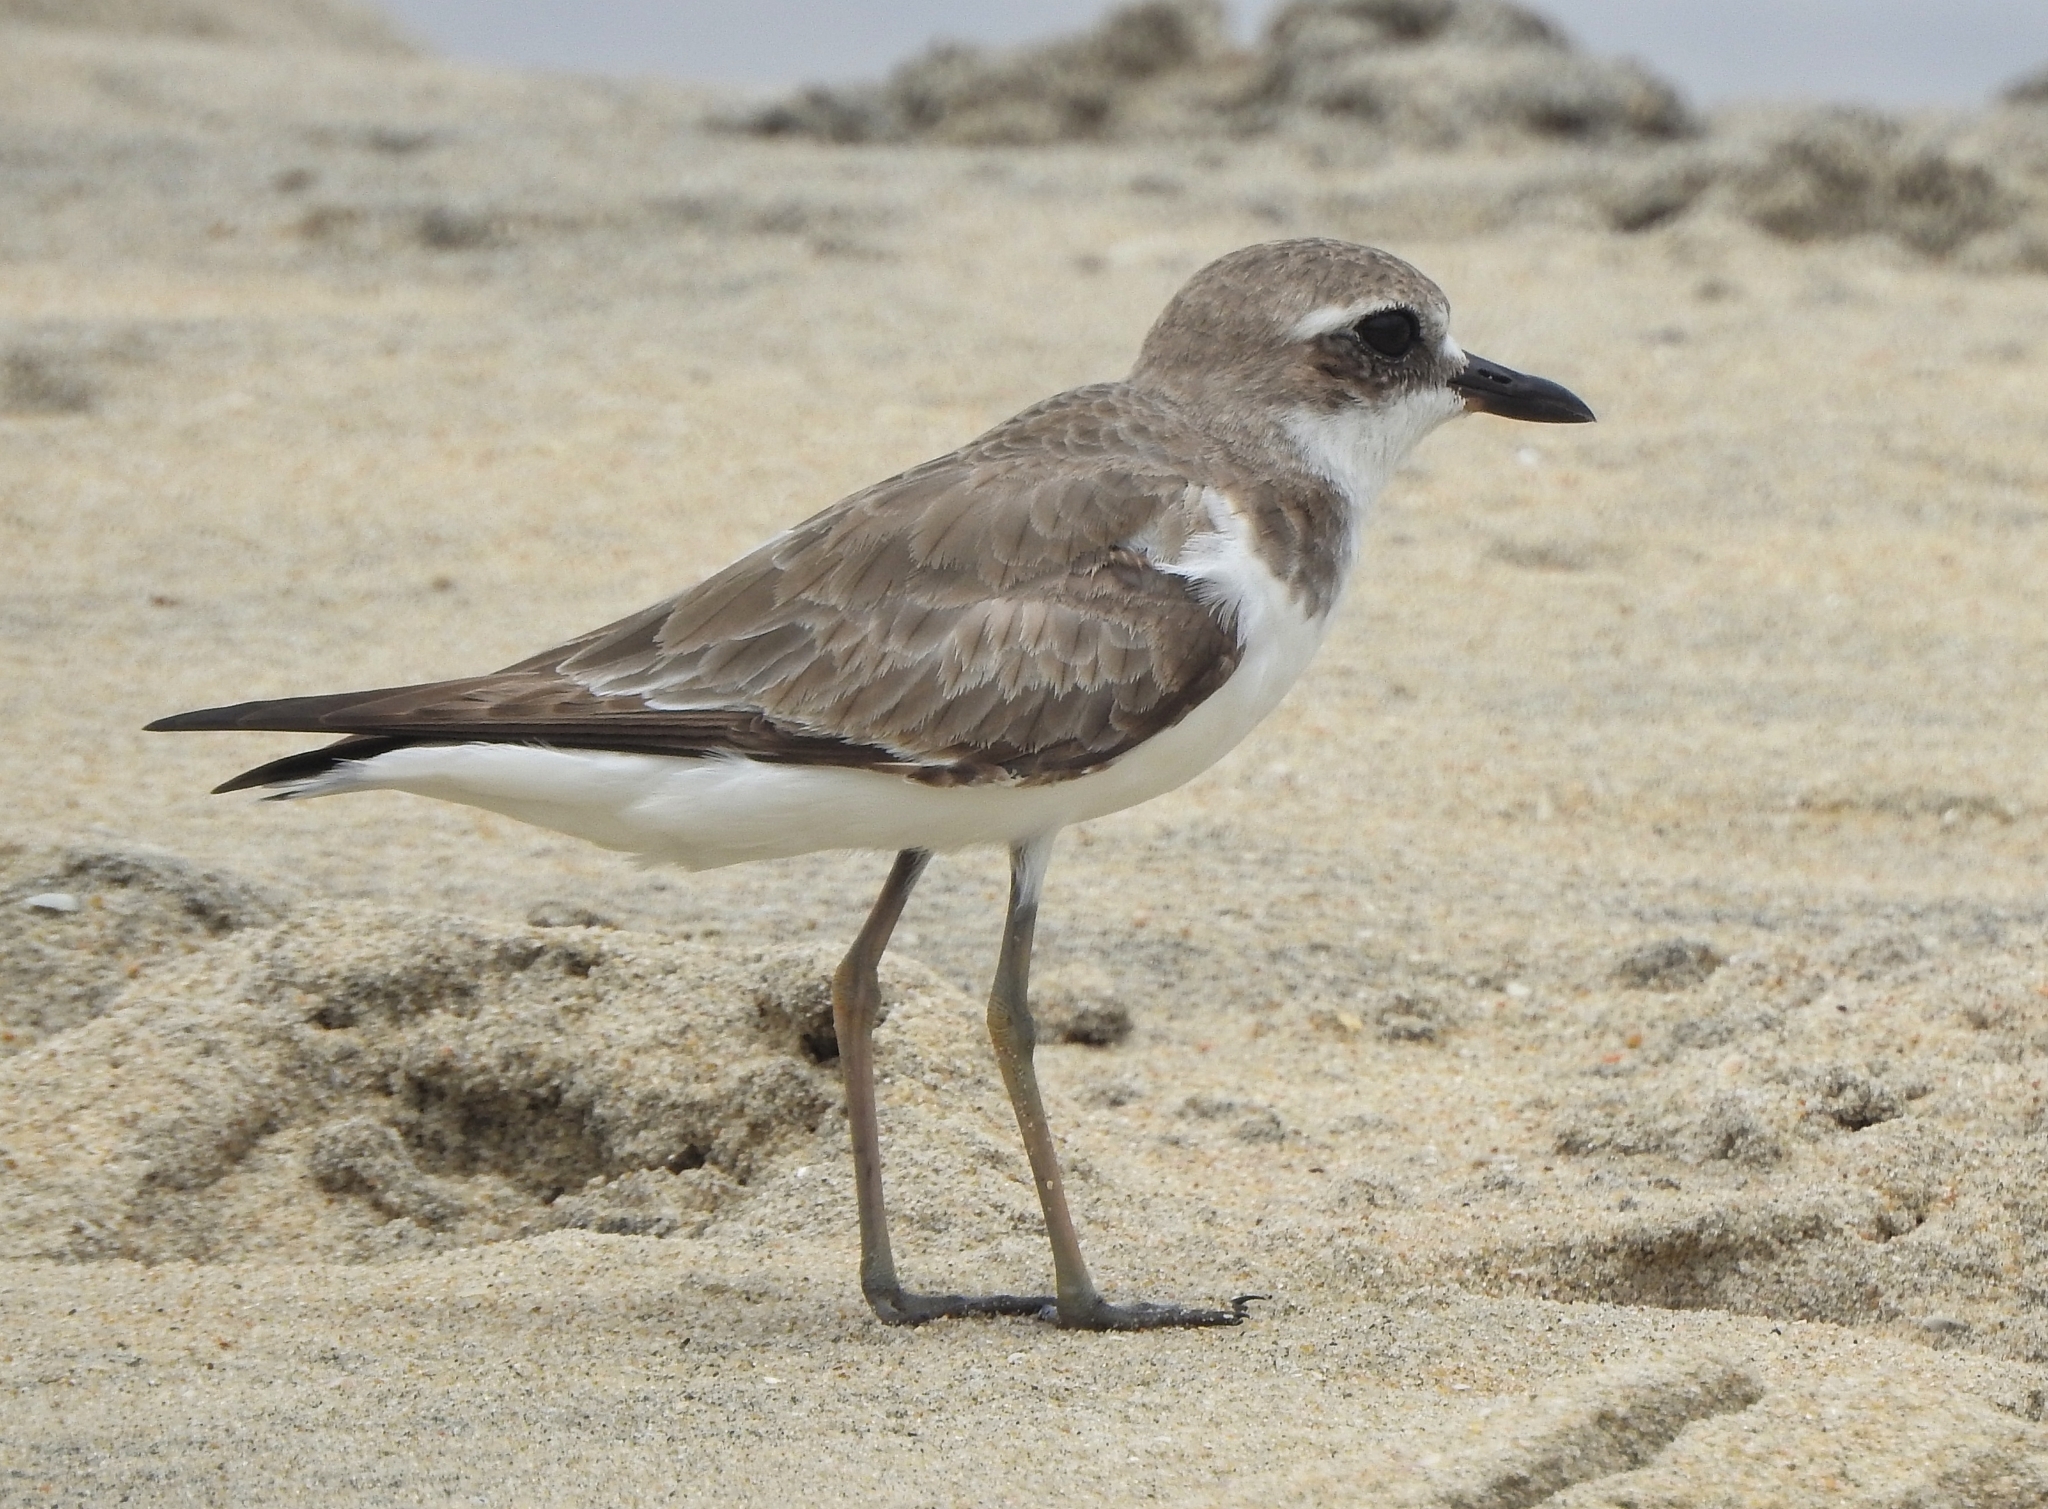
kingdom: Animalia
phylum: Chordata
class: Aves
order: Charadriiformes
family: Charadriidae
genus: Charadrius
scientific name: Charadrius leschenaultii
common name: Greater sand plover
